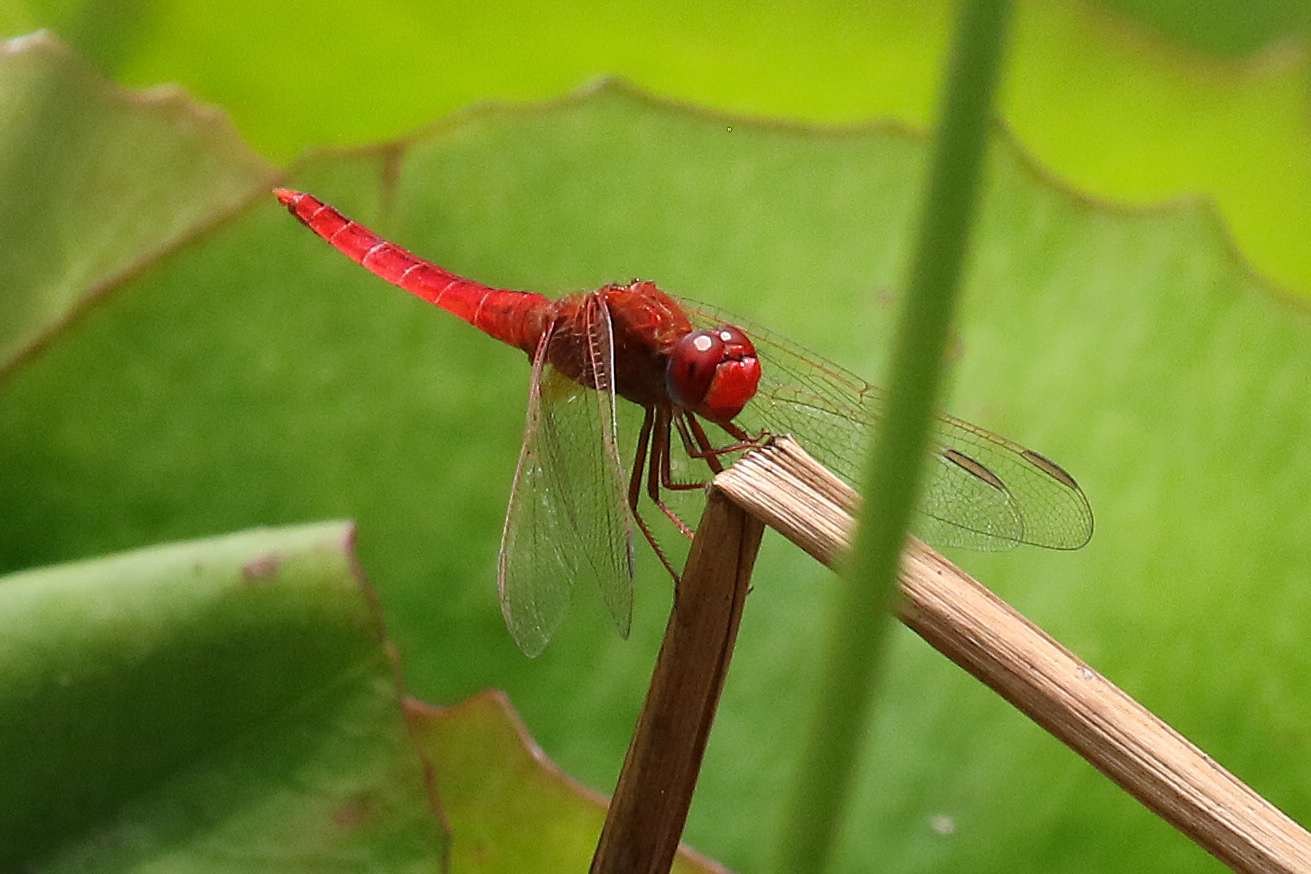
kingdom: Animalia
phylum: Arthropoda
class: Insecta
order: Odonata
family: Libellulidae
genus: Crocothemis
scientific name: Crocothemis erythraea
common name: Scarlet dragonfly
